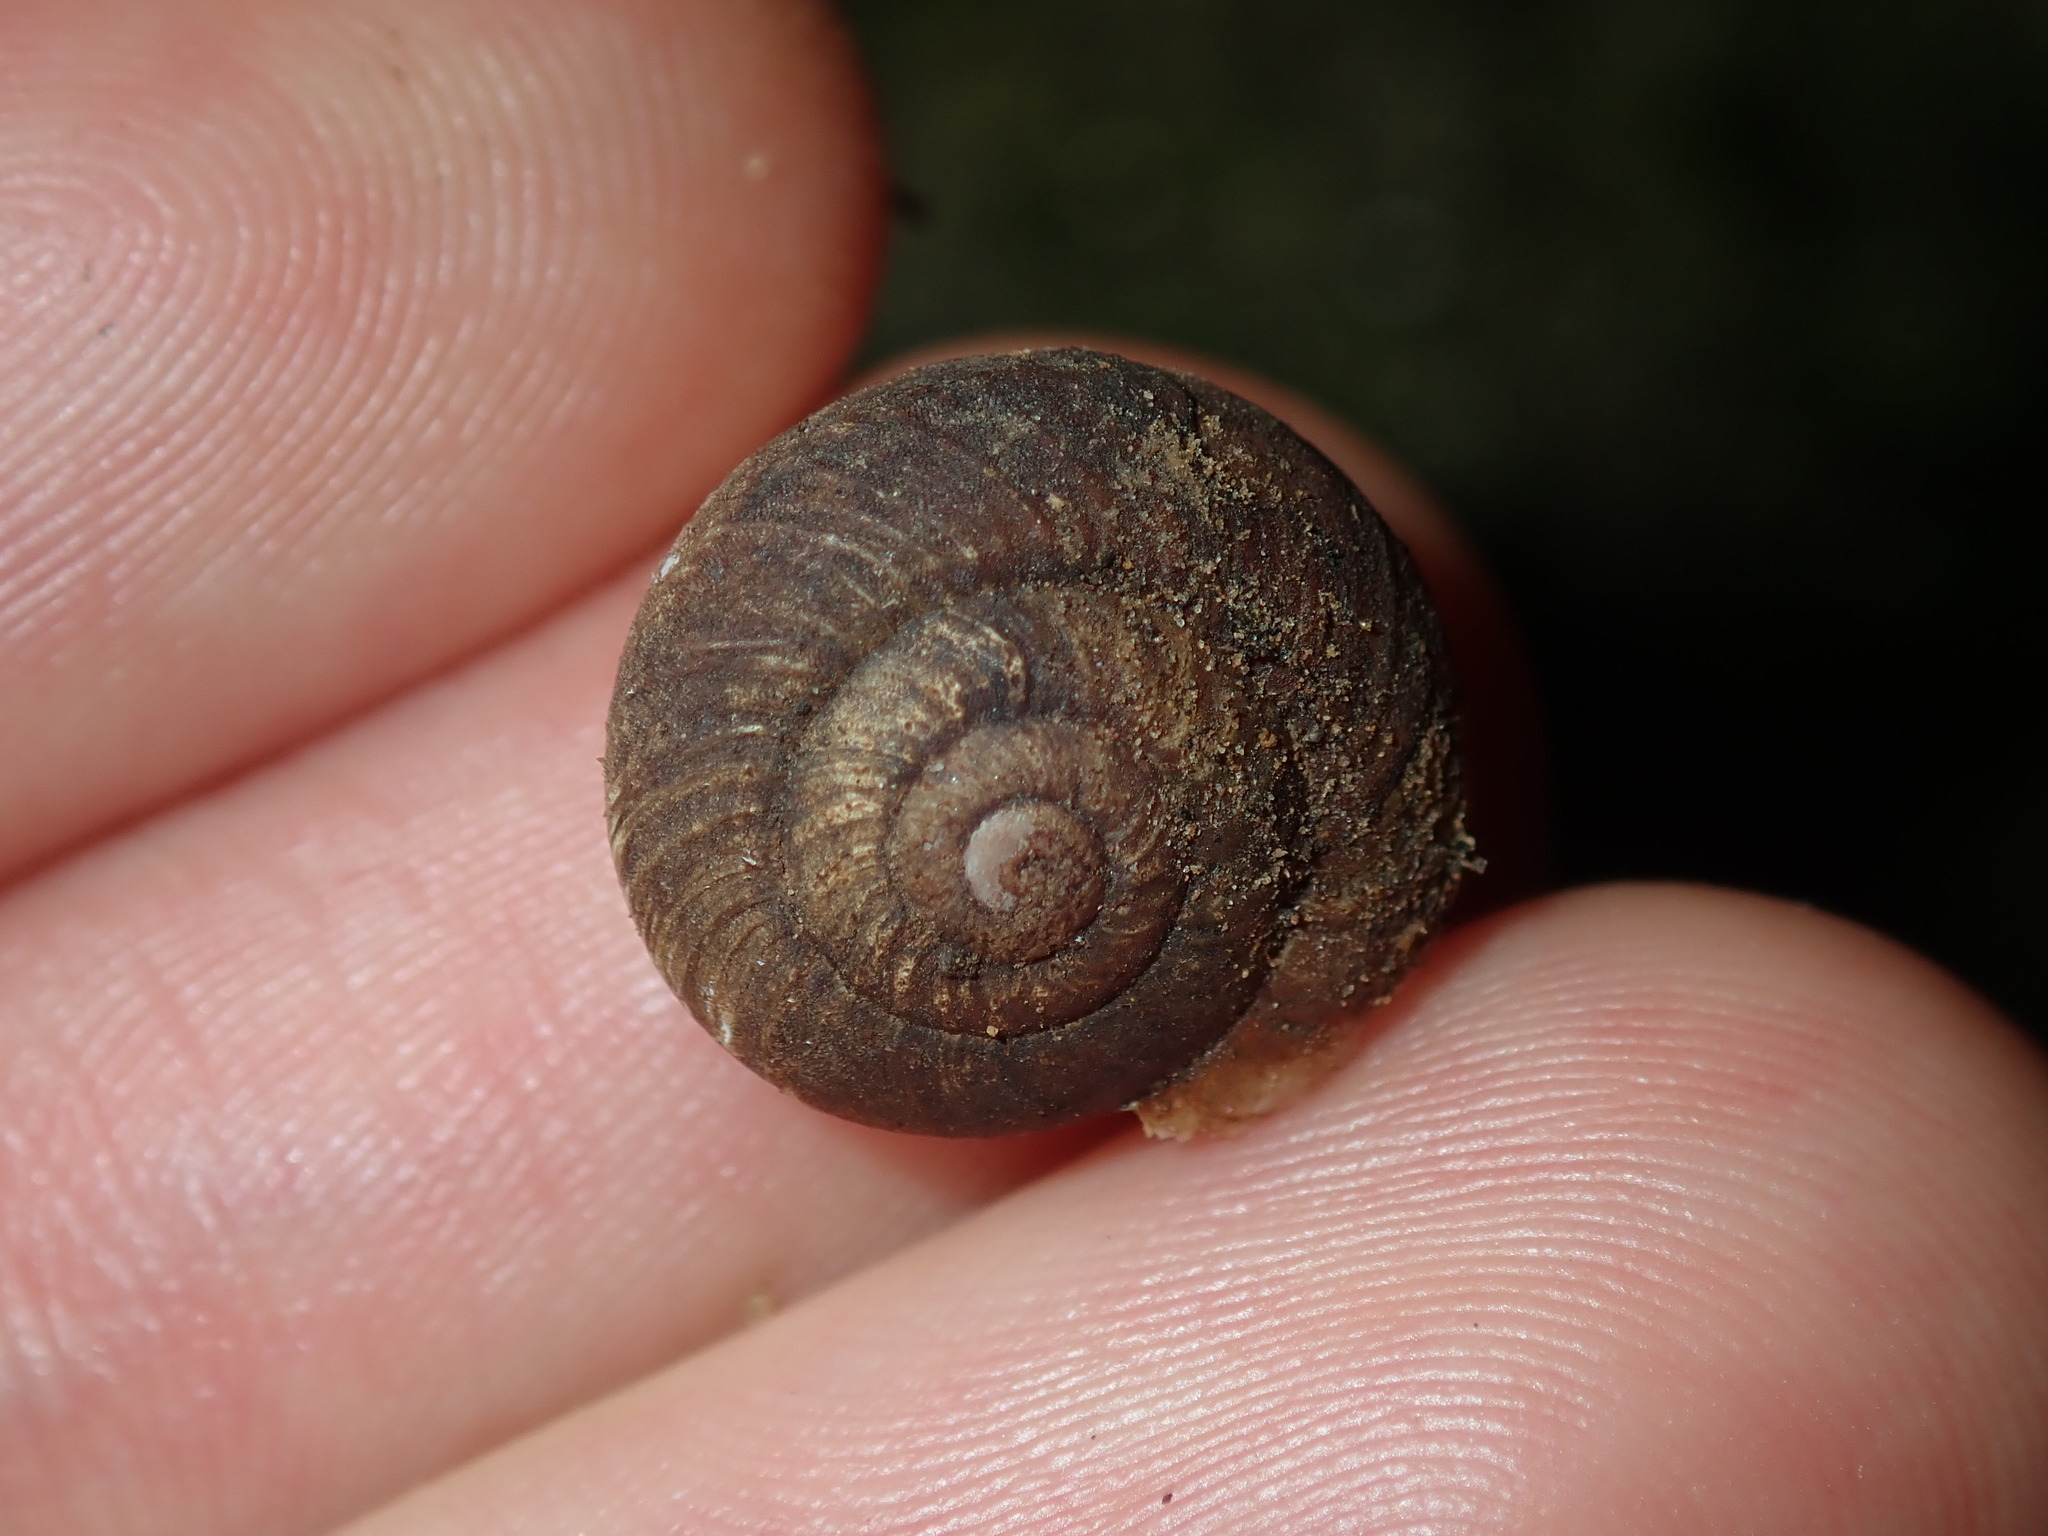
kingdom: Animalia
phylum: Mollusca
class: Gastropoda
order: Stylommatophora
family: Camaenidae
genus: Sauroconcha
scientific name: Sauroconcha sheai
